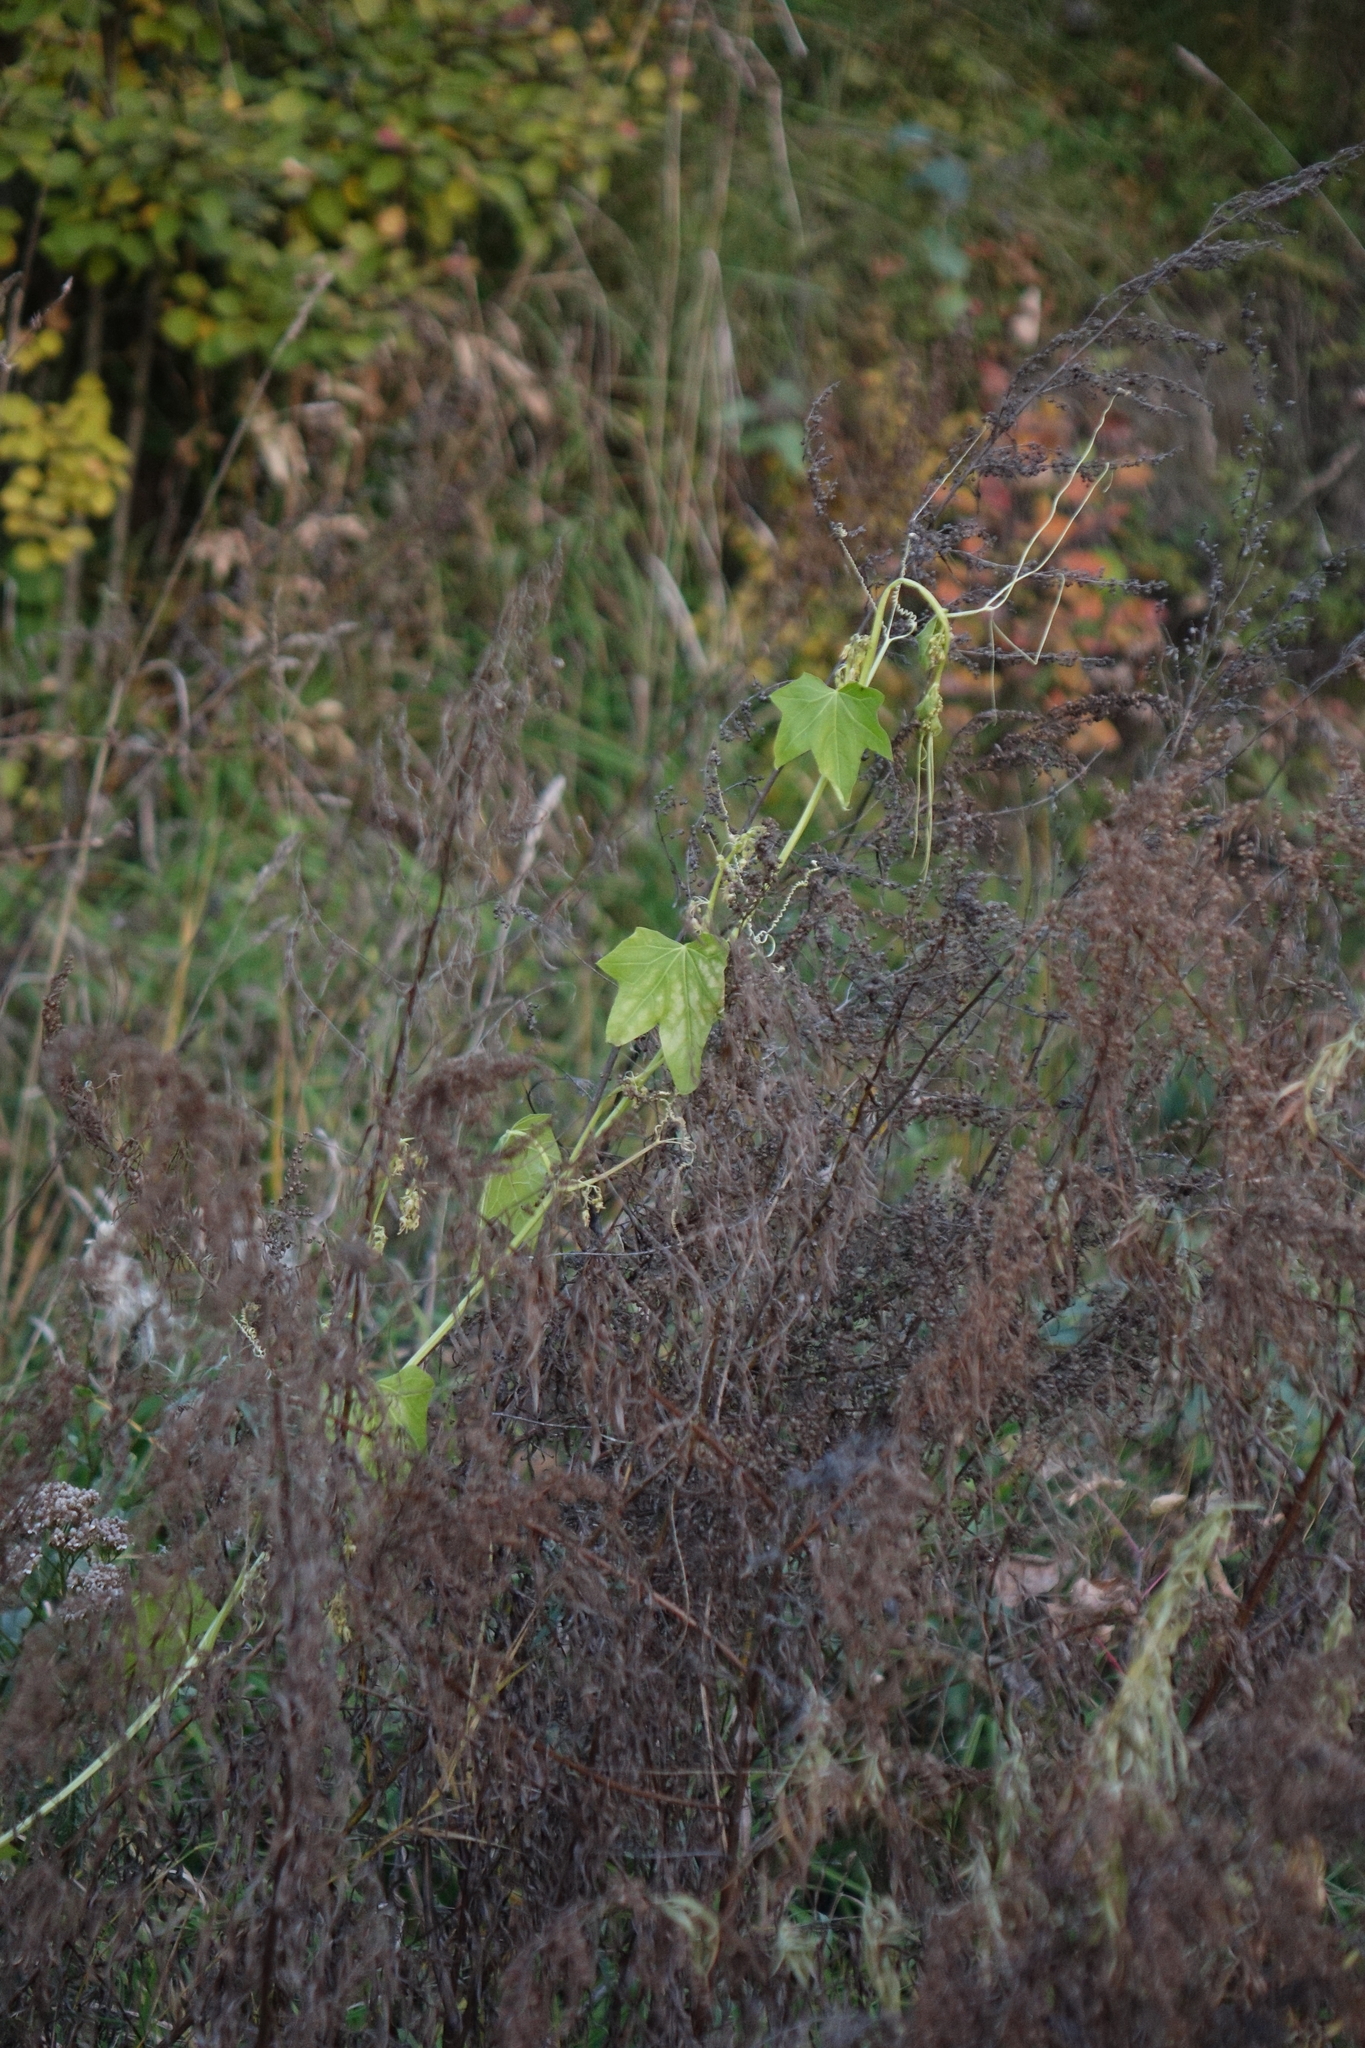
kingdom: Plantae
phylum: Tracheophyta
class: Magnoliopsida
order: Cucurbitales
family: Cucurbitaceae
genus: Echinocystis
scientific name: Echinocystis lobata
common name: Wild cucumber
